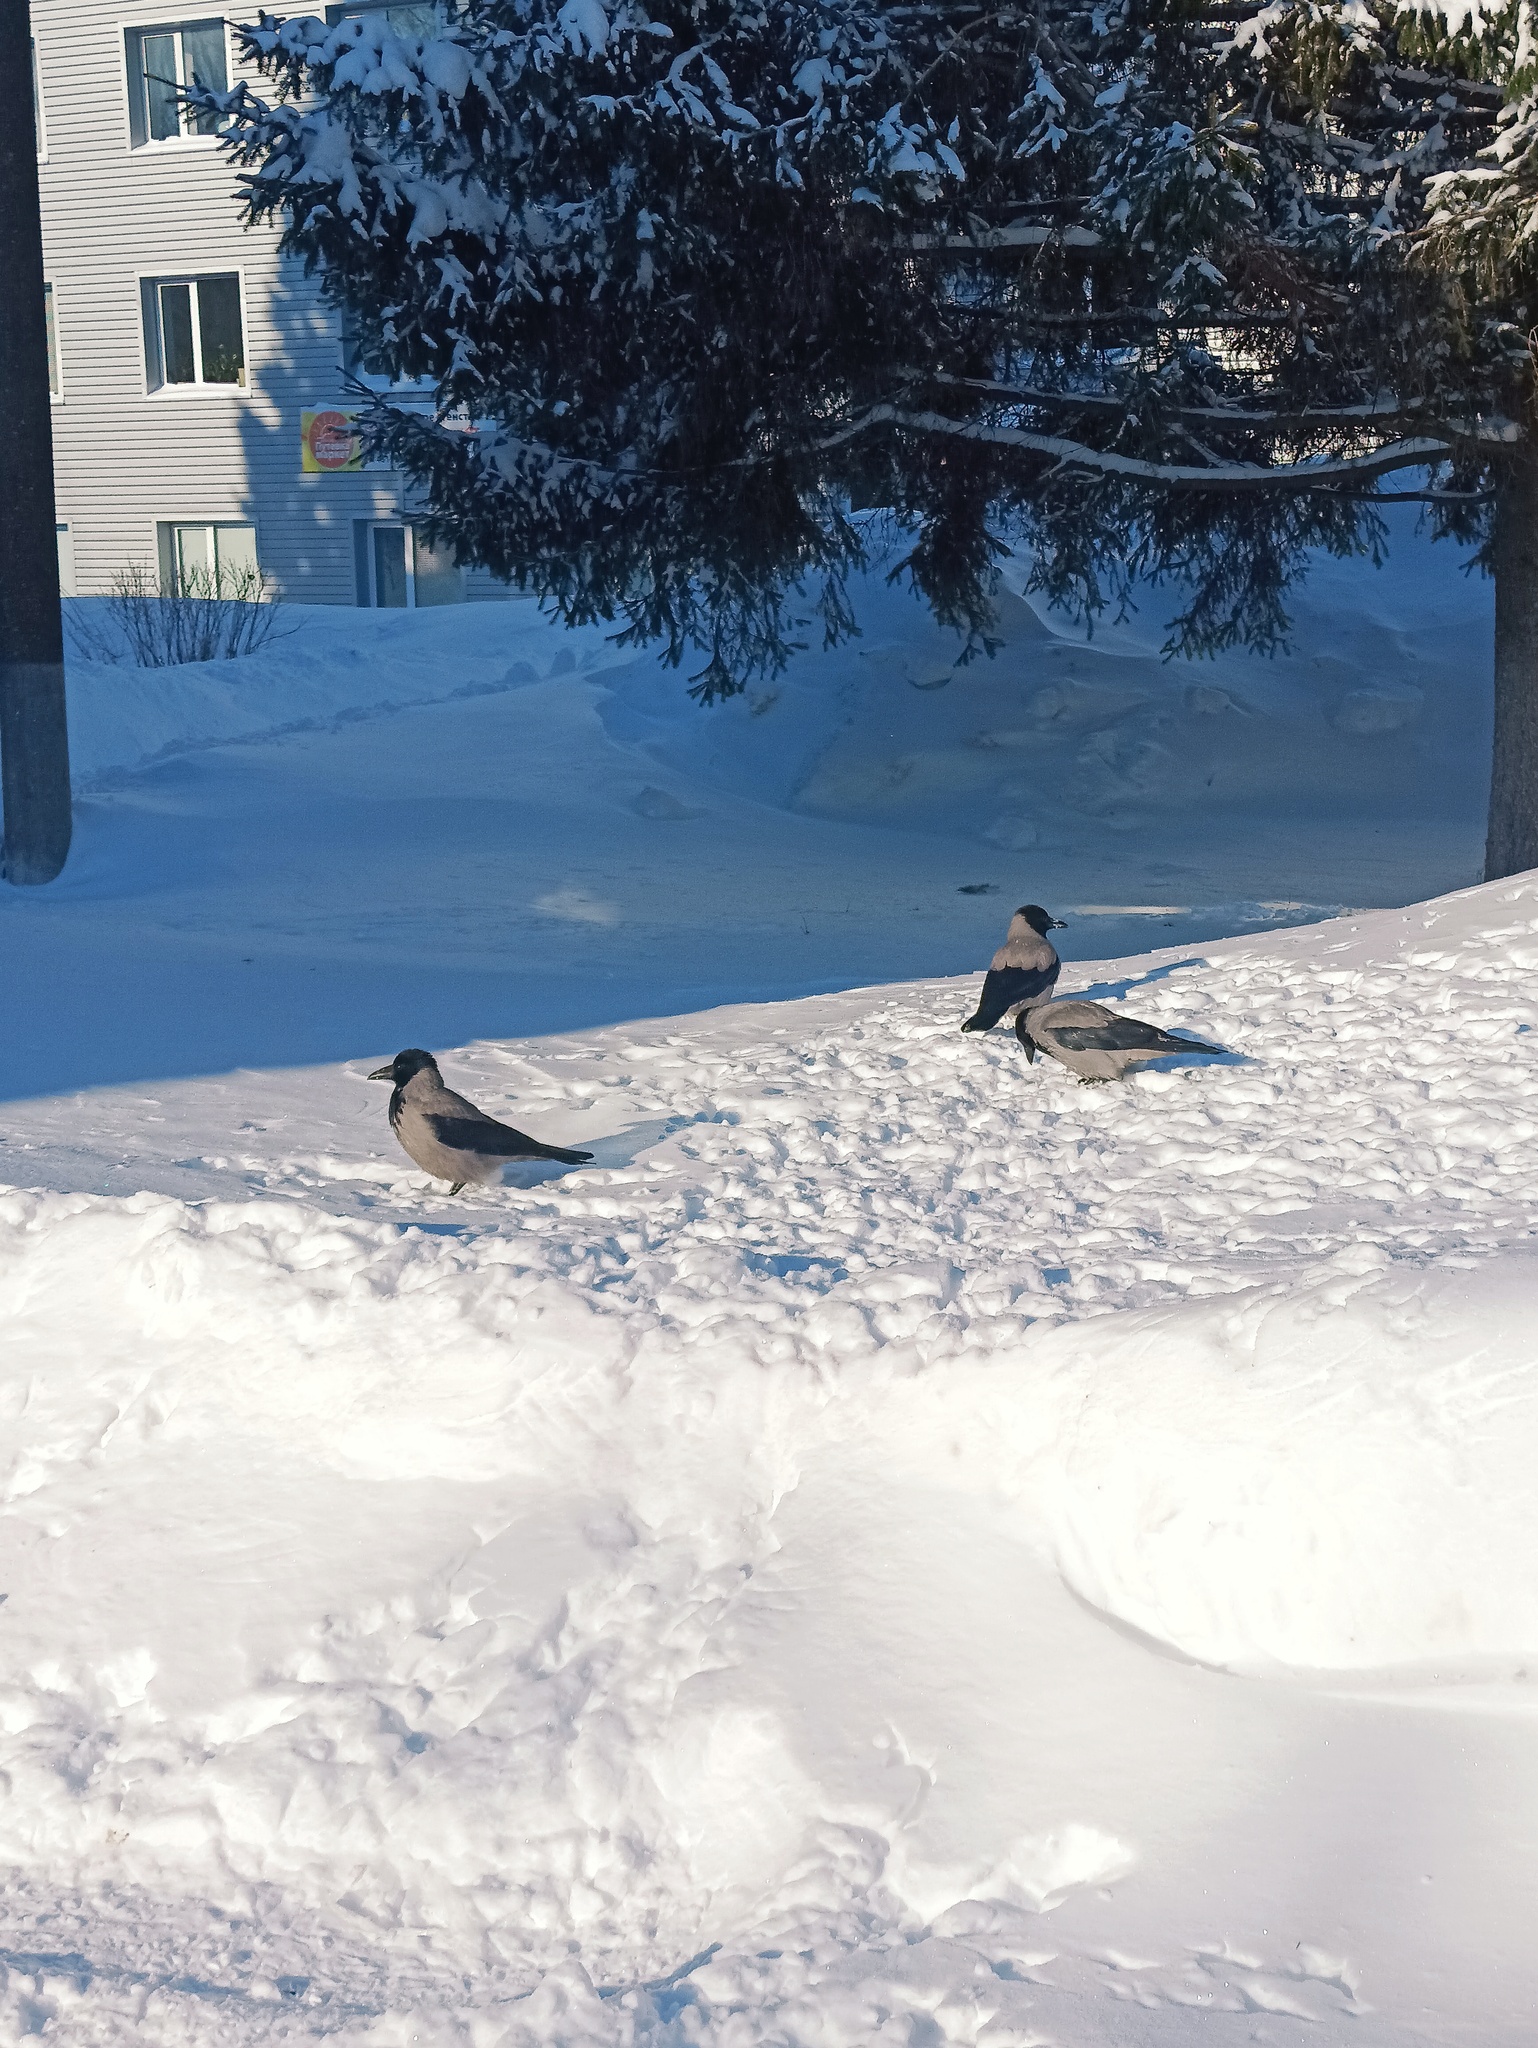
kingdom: Animalia
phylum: Chordata
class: Aves
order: Passeriformes
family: Corvidae
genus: Corvus
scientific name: Corvus cornix
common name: Hooded crow
